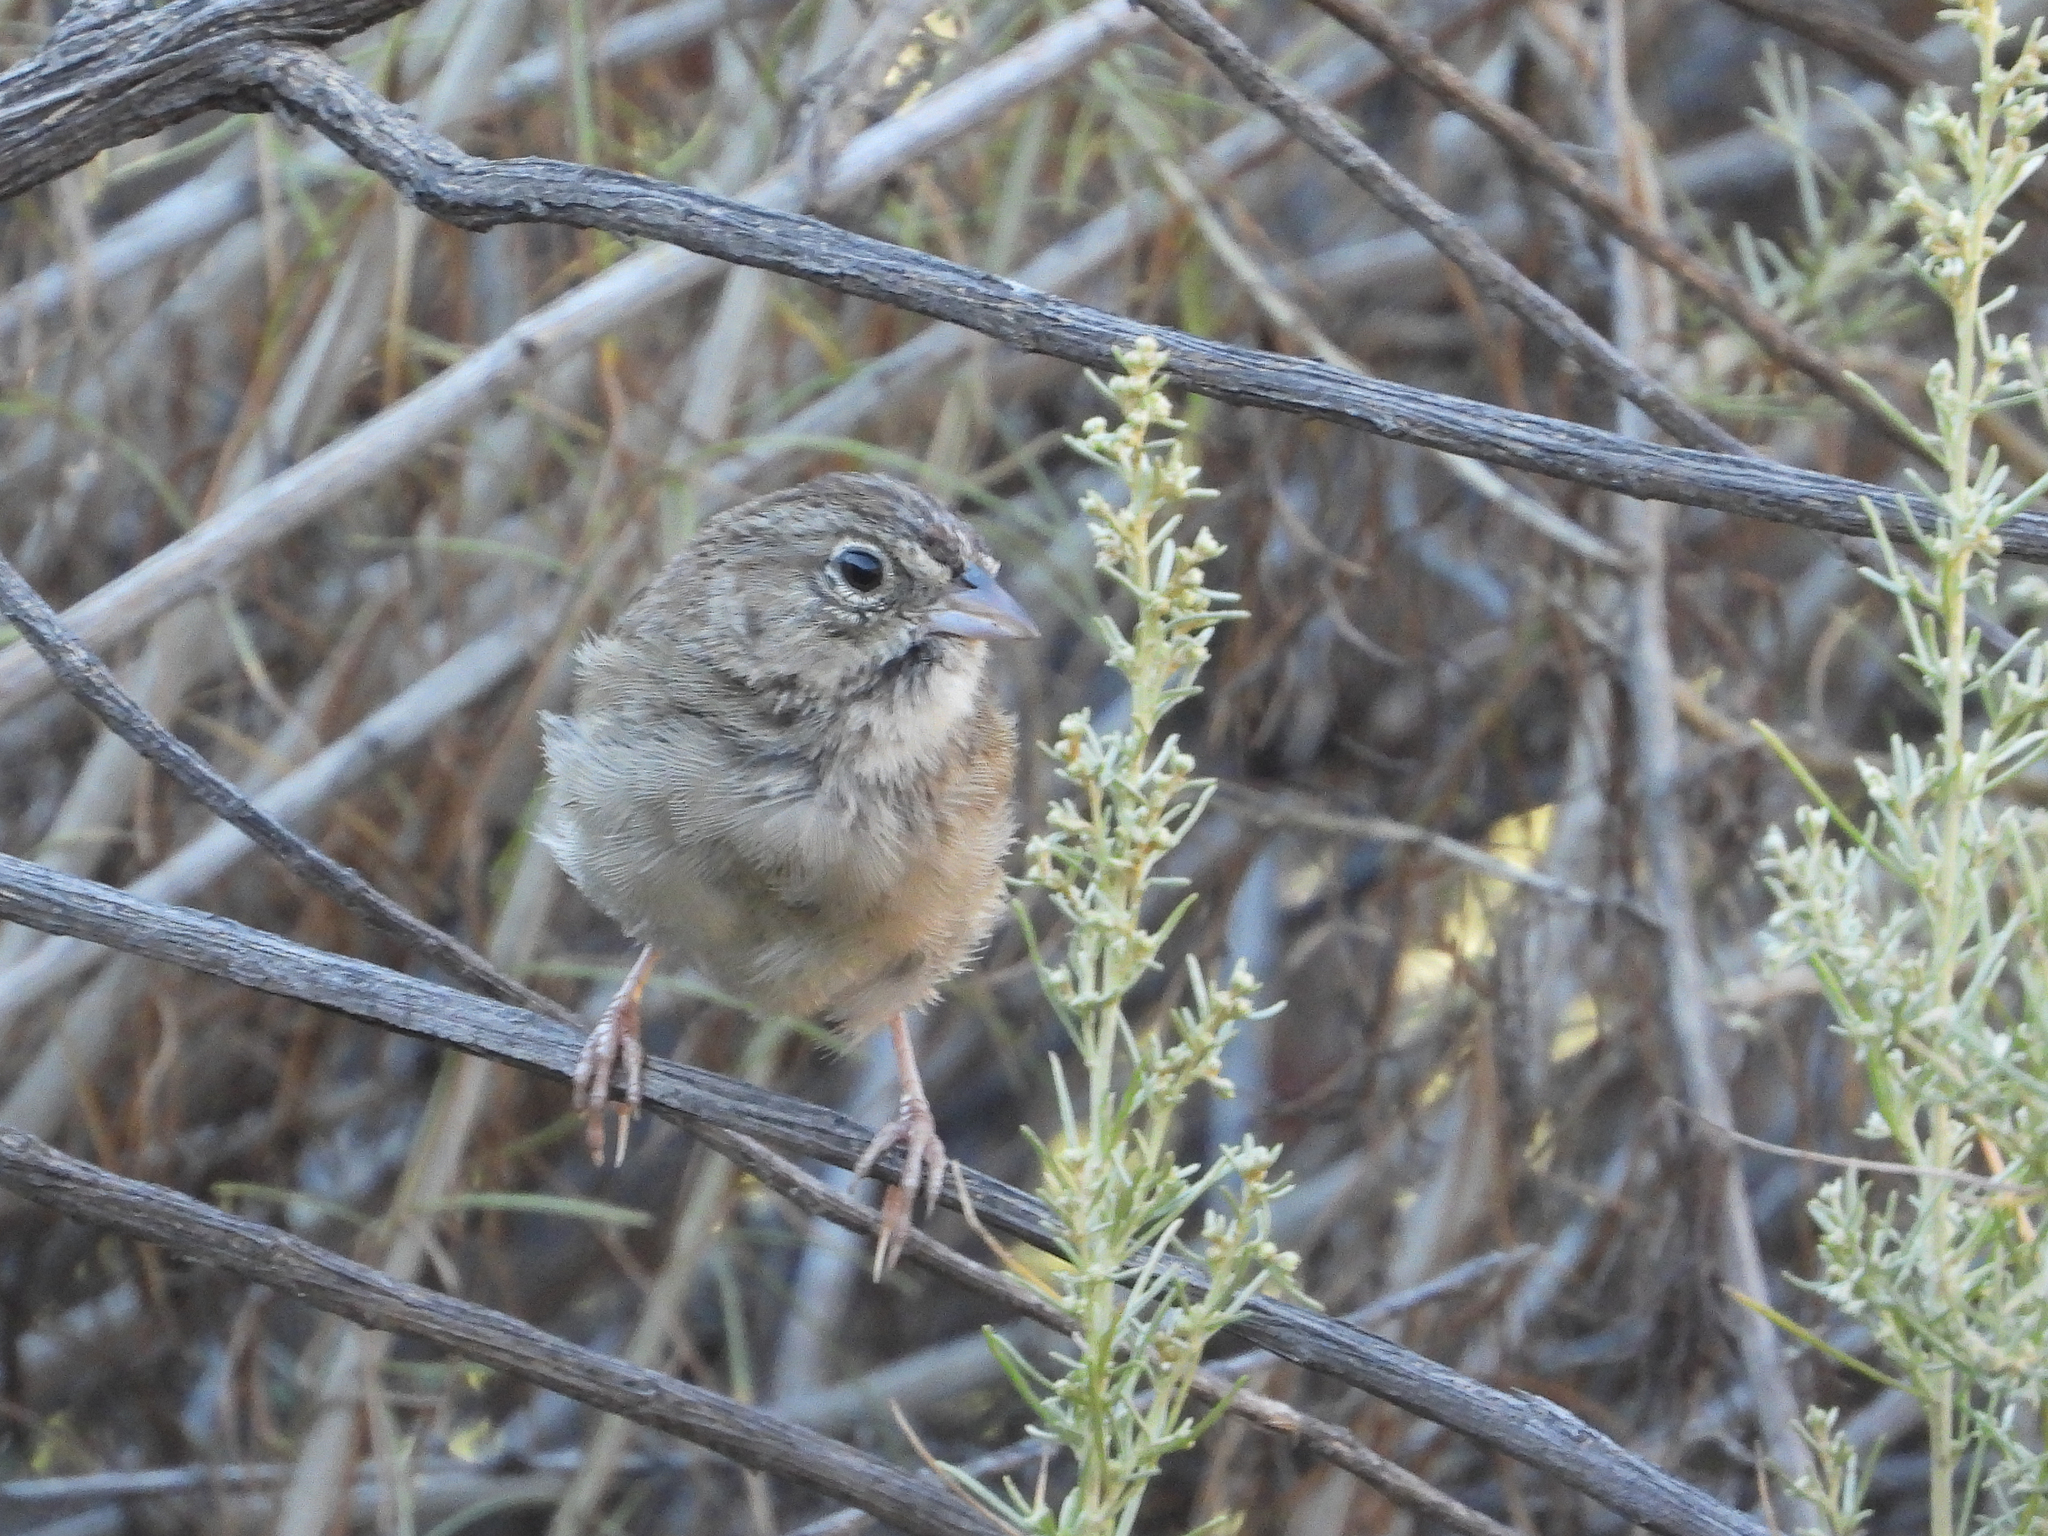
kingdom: Animalia
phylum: Chordata
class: Aves
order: Passeriformes
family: Passerellidae
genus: Aimophila
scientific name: Aimophila ruficeps
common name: Rufous-crowned sparrow
